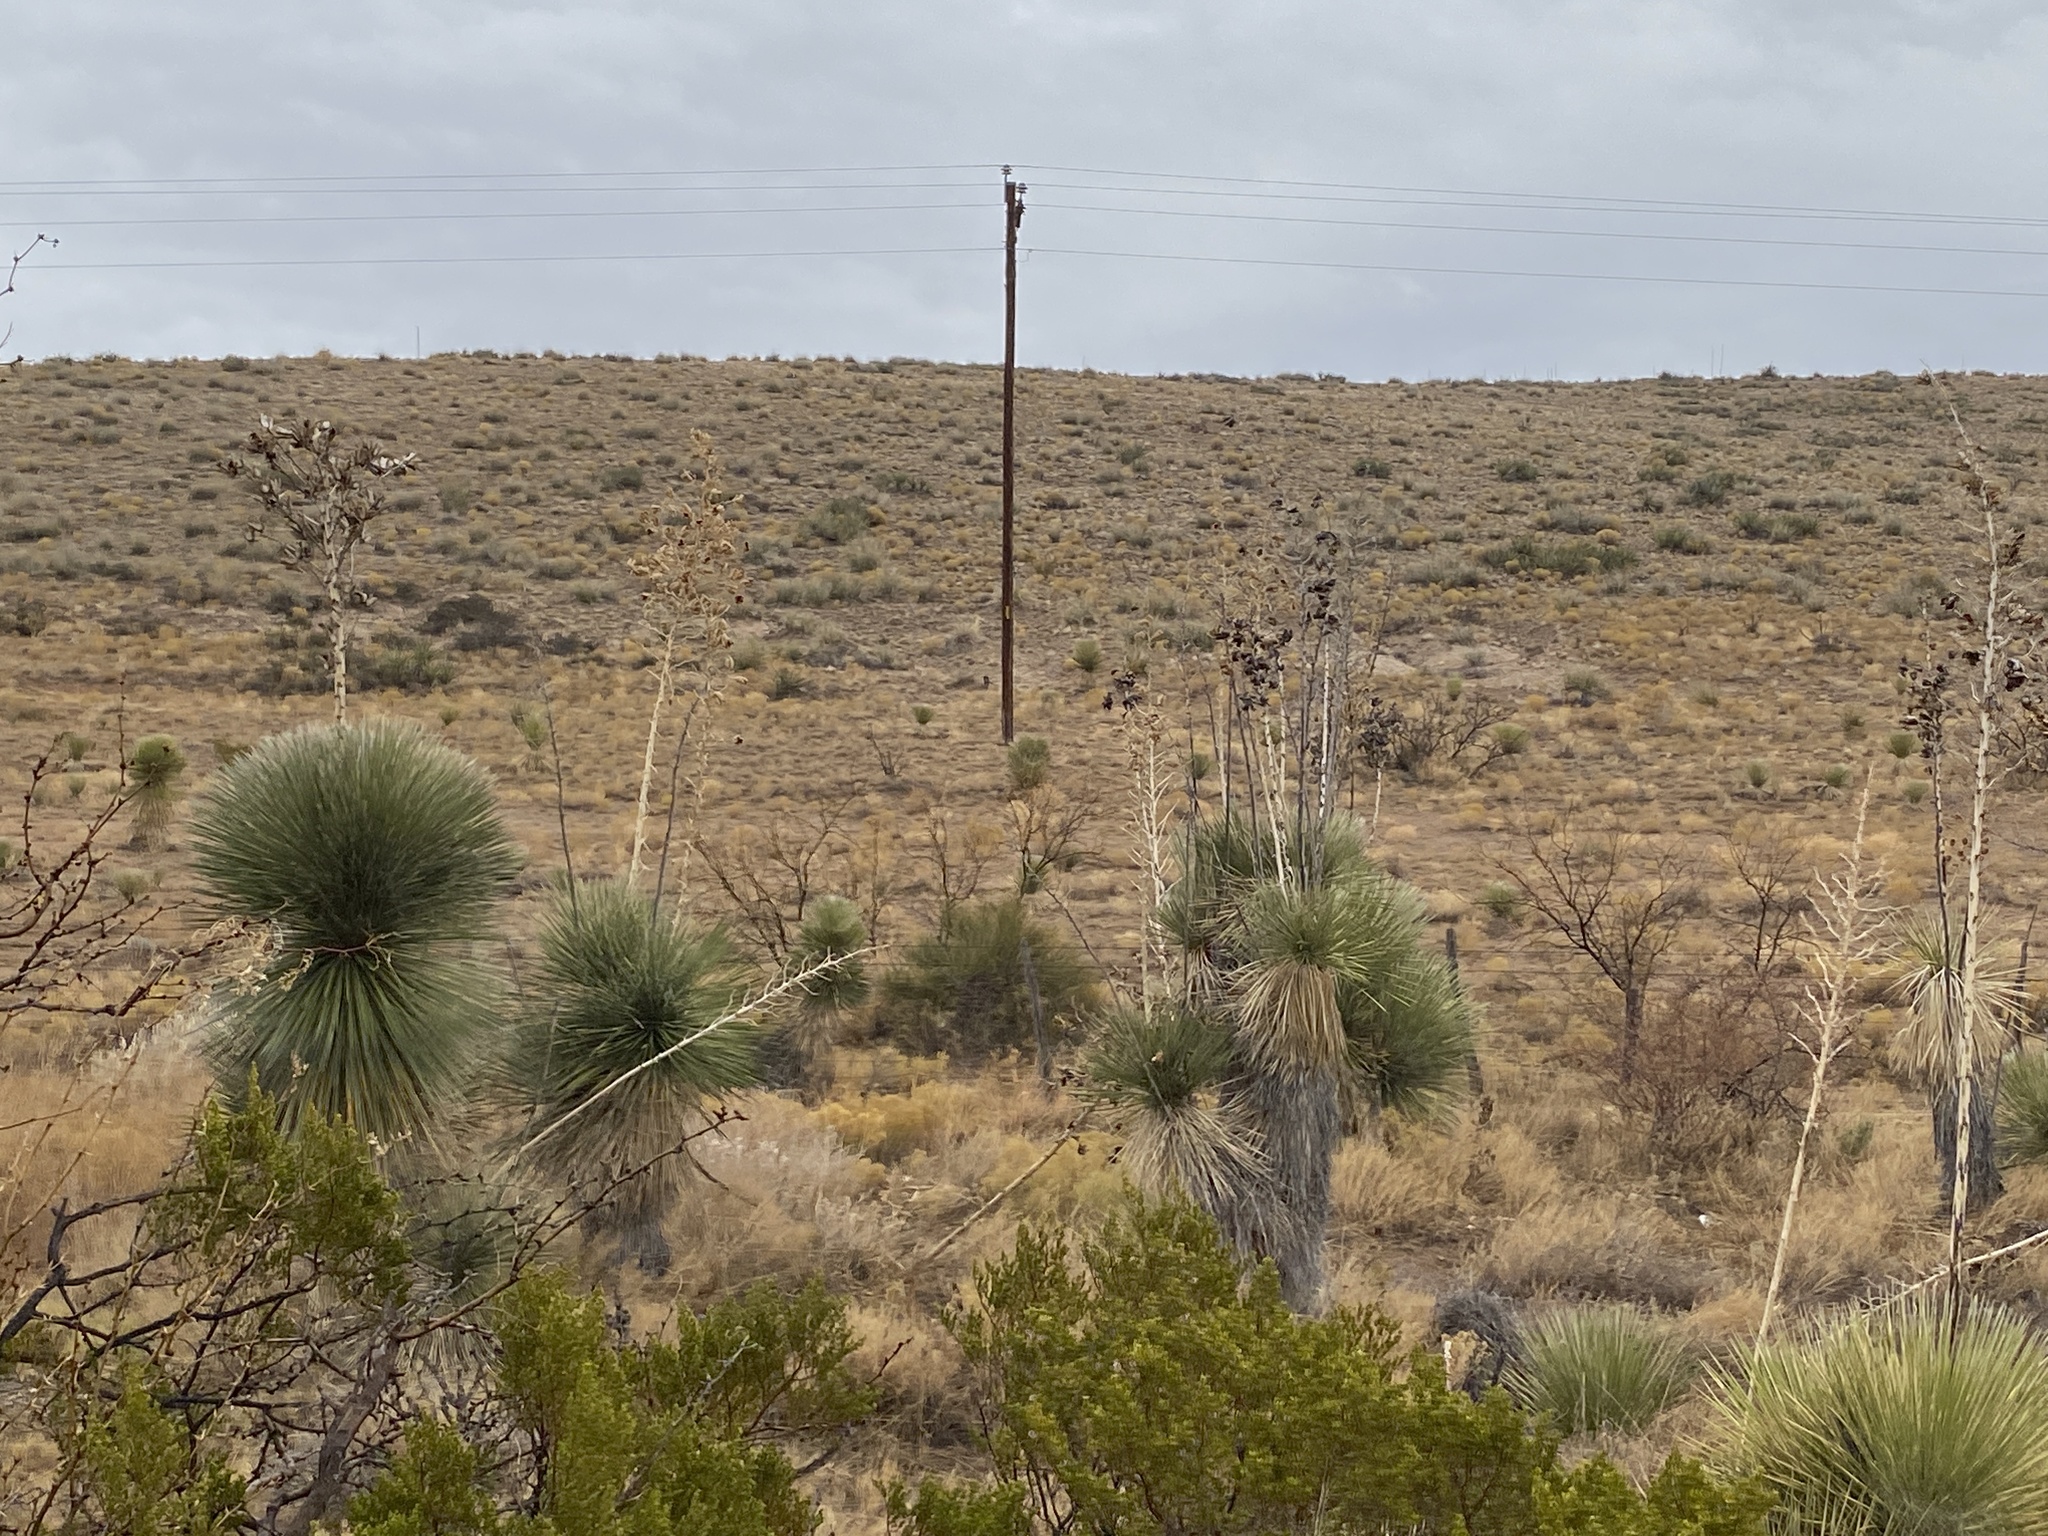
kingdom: Plantae
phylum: Tracheophyta
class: Liliopsida
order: Asparagales
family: Asparagaceae
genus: Yucca
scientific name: Yucca elata
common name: Palmella
